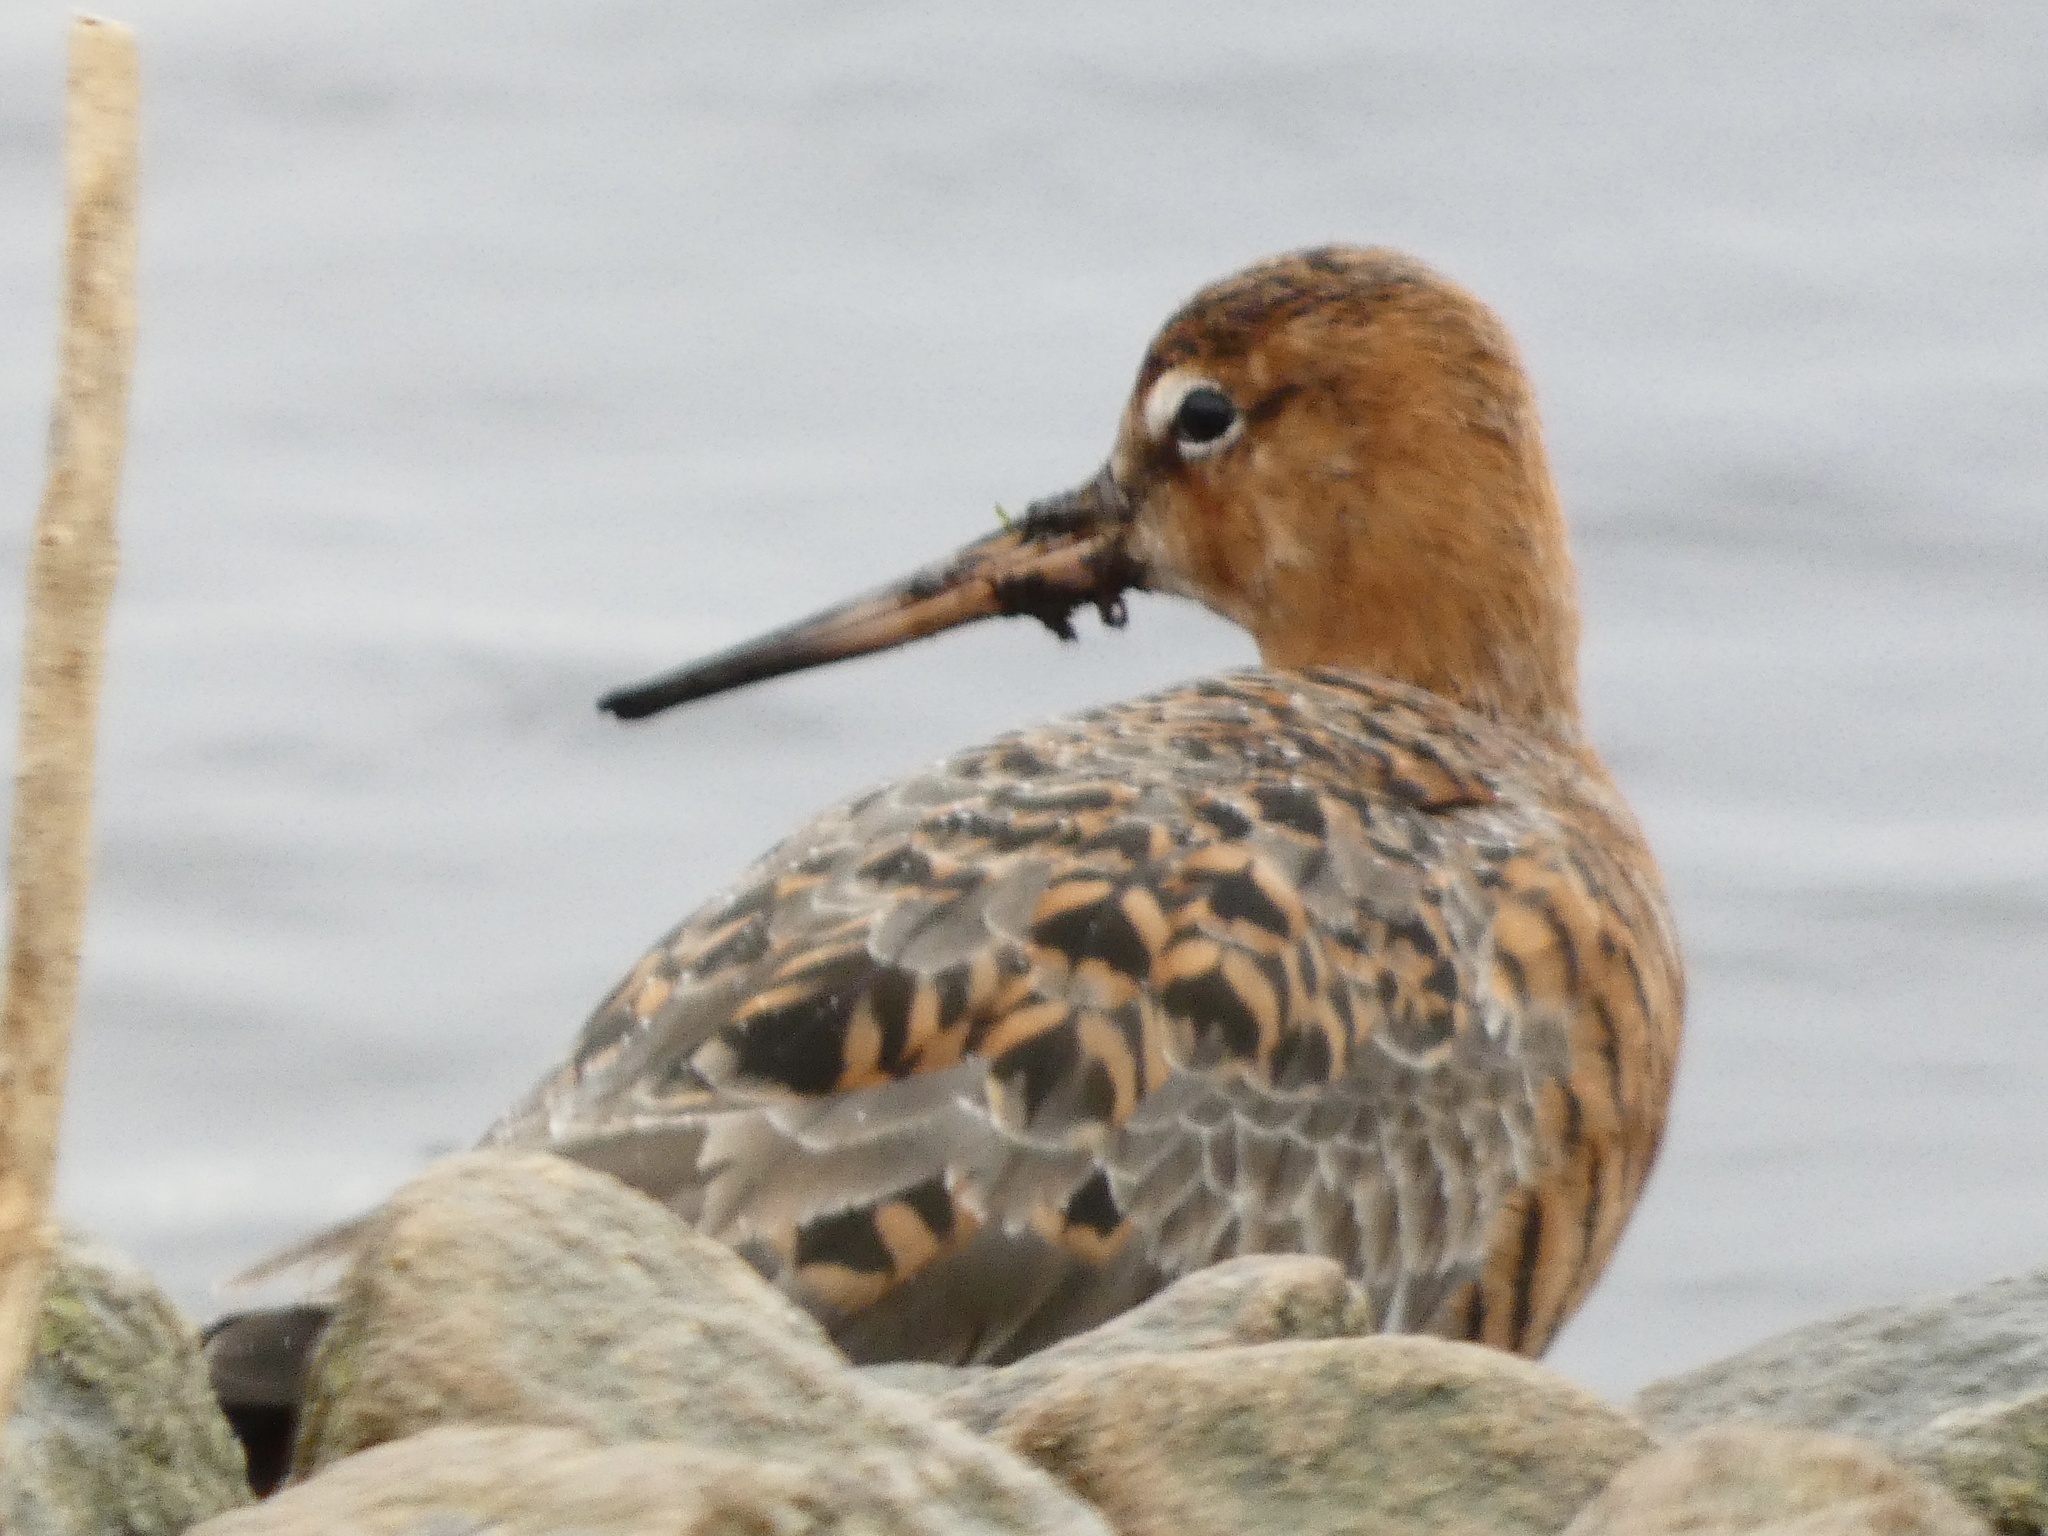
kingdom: Animalia
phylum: Chordata
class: Aves
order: Charadriiformes
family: Scolopacidae
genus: Limosa
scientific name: Limosa limosa
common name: Black-tailed godwit
